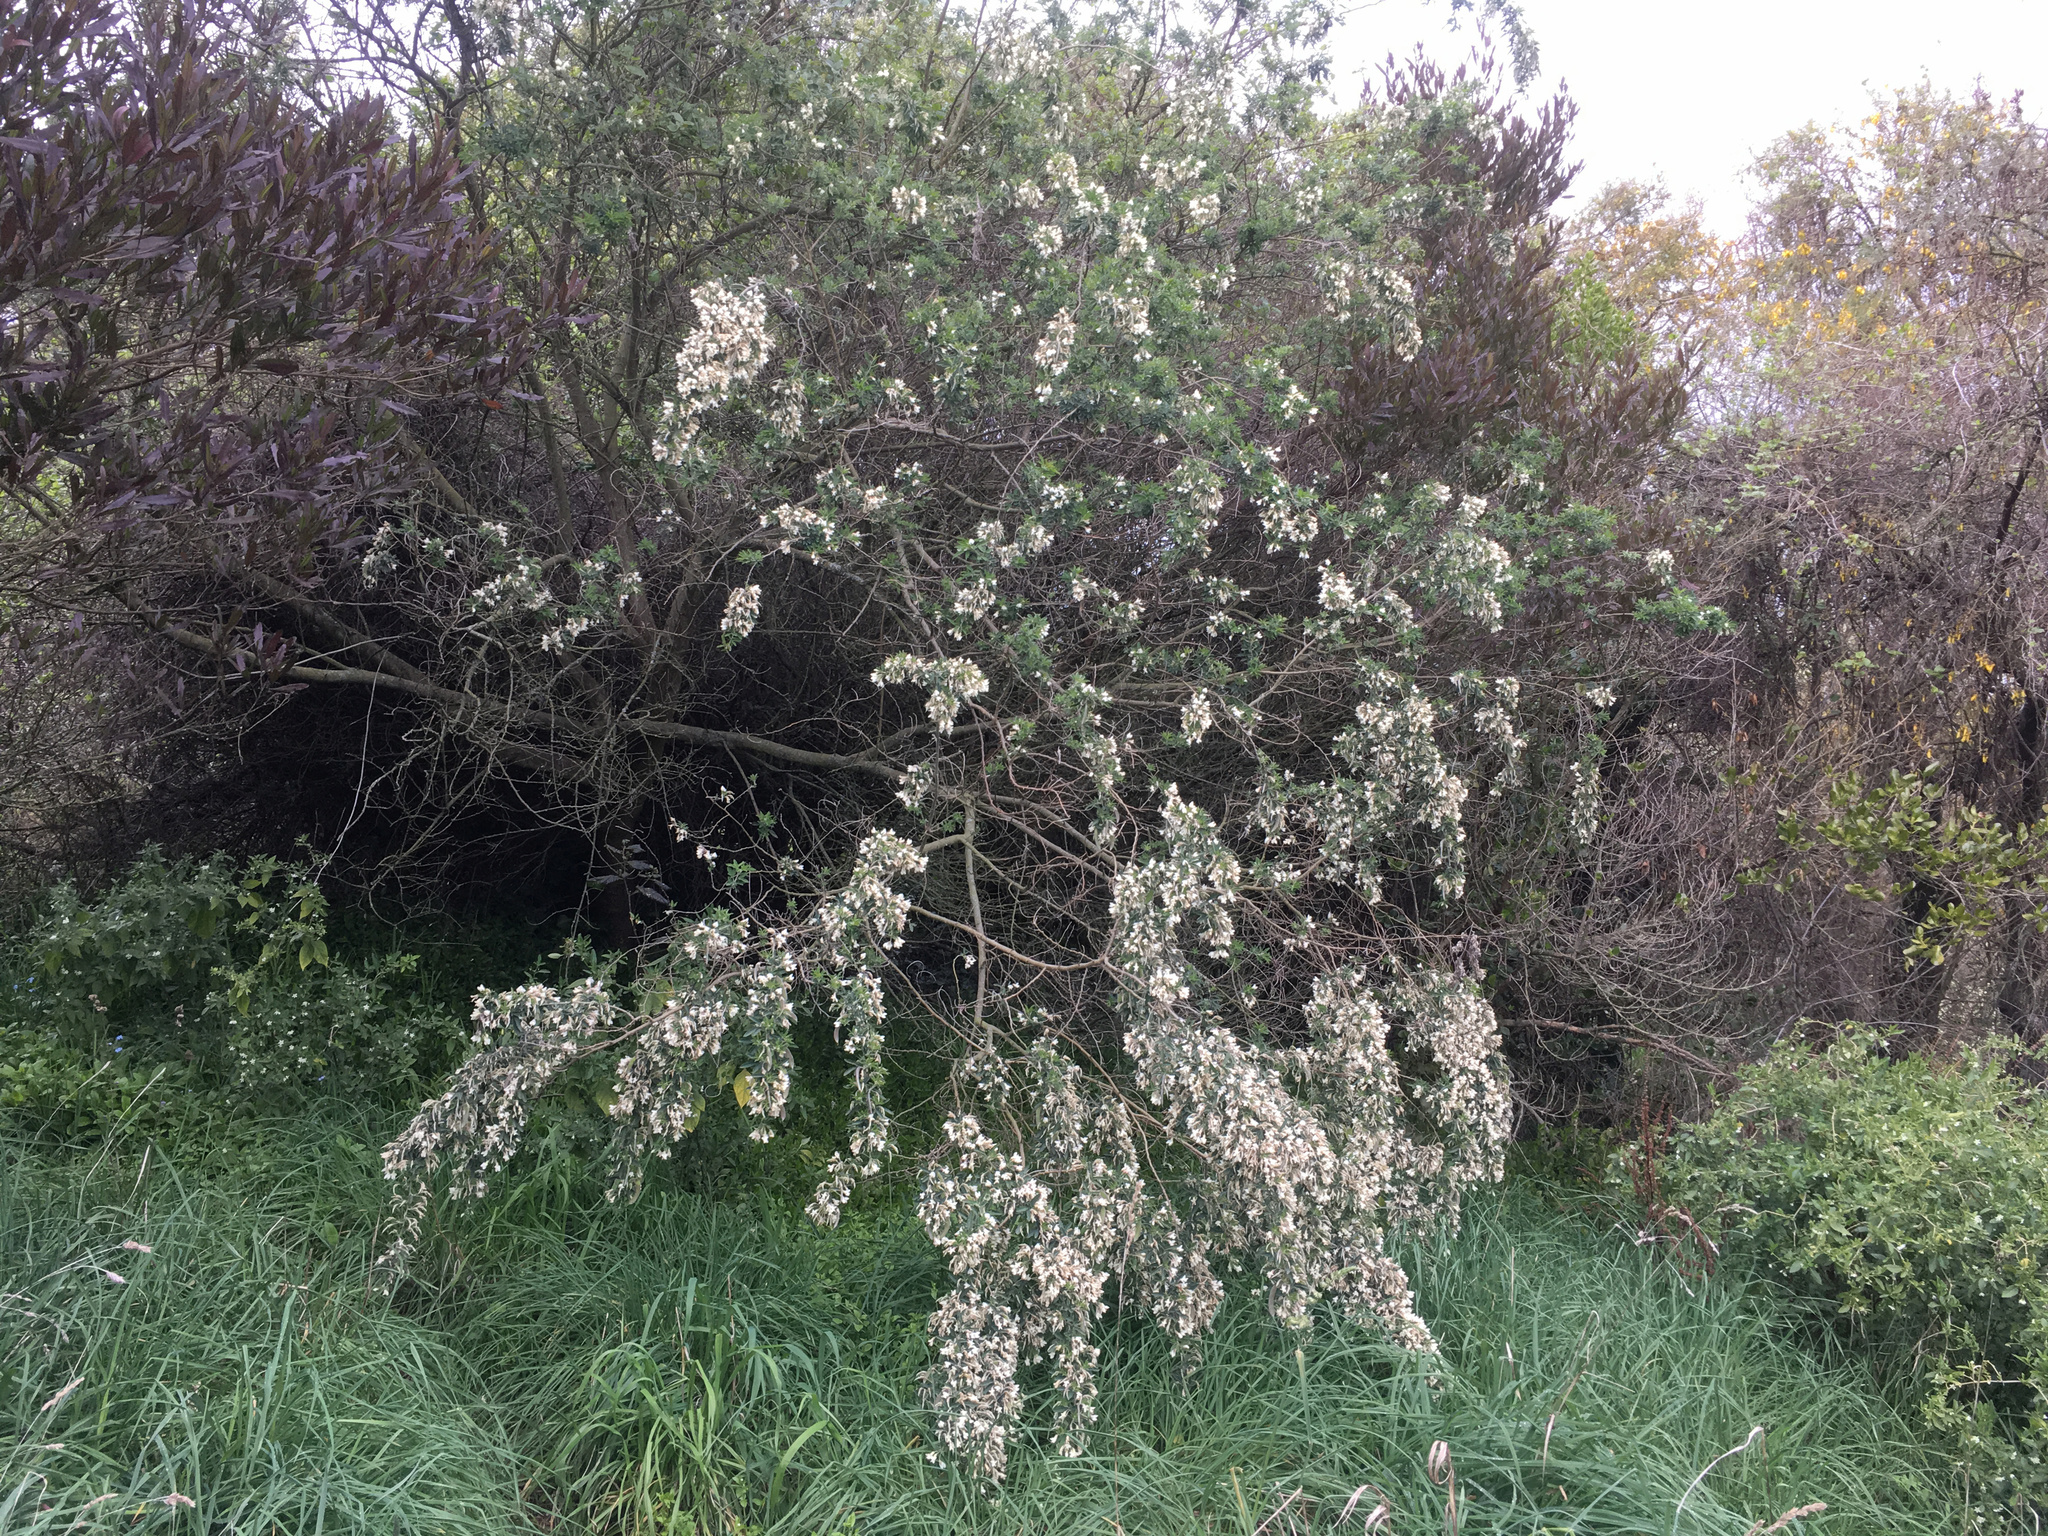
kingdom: Plantae
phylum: Tracheophyta
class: Magnoliopsida
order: Fabales
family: Fabaceae
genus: Chamaecytisus
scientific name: Chamaecytisus prolifer
